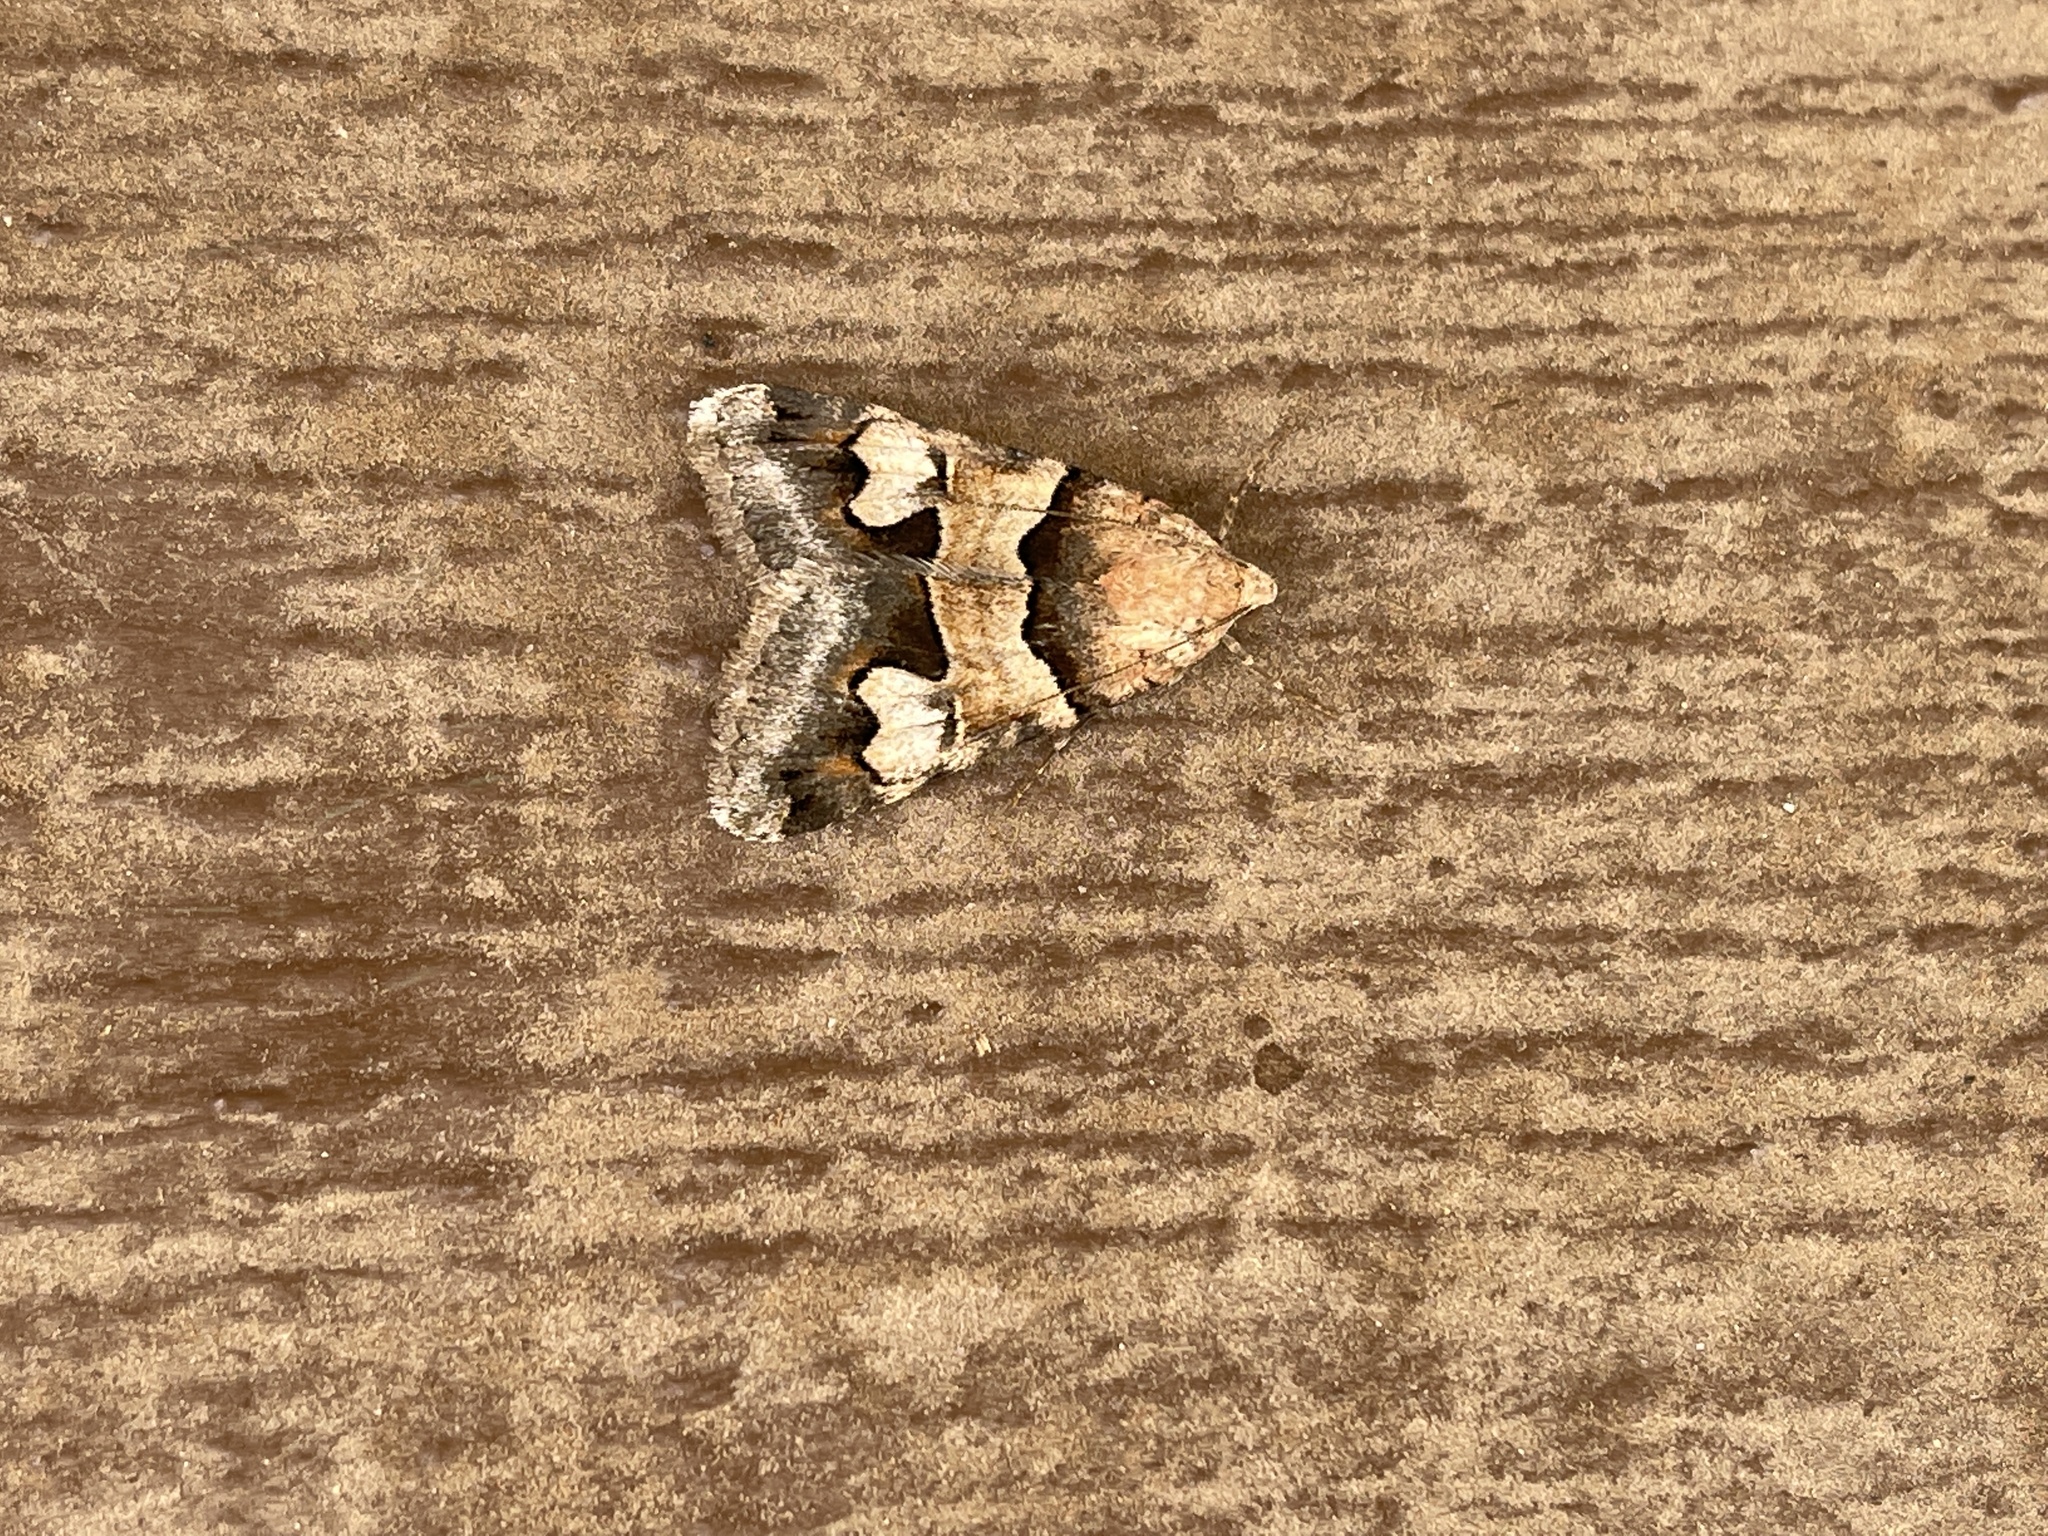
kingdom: Animalia
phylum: Arthropoda
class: Insecta
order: Lepidoptera
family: Erebidae
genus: Bulia
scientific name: Bulia deducta
